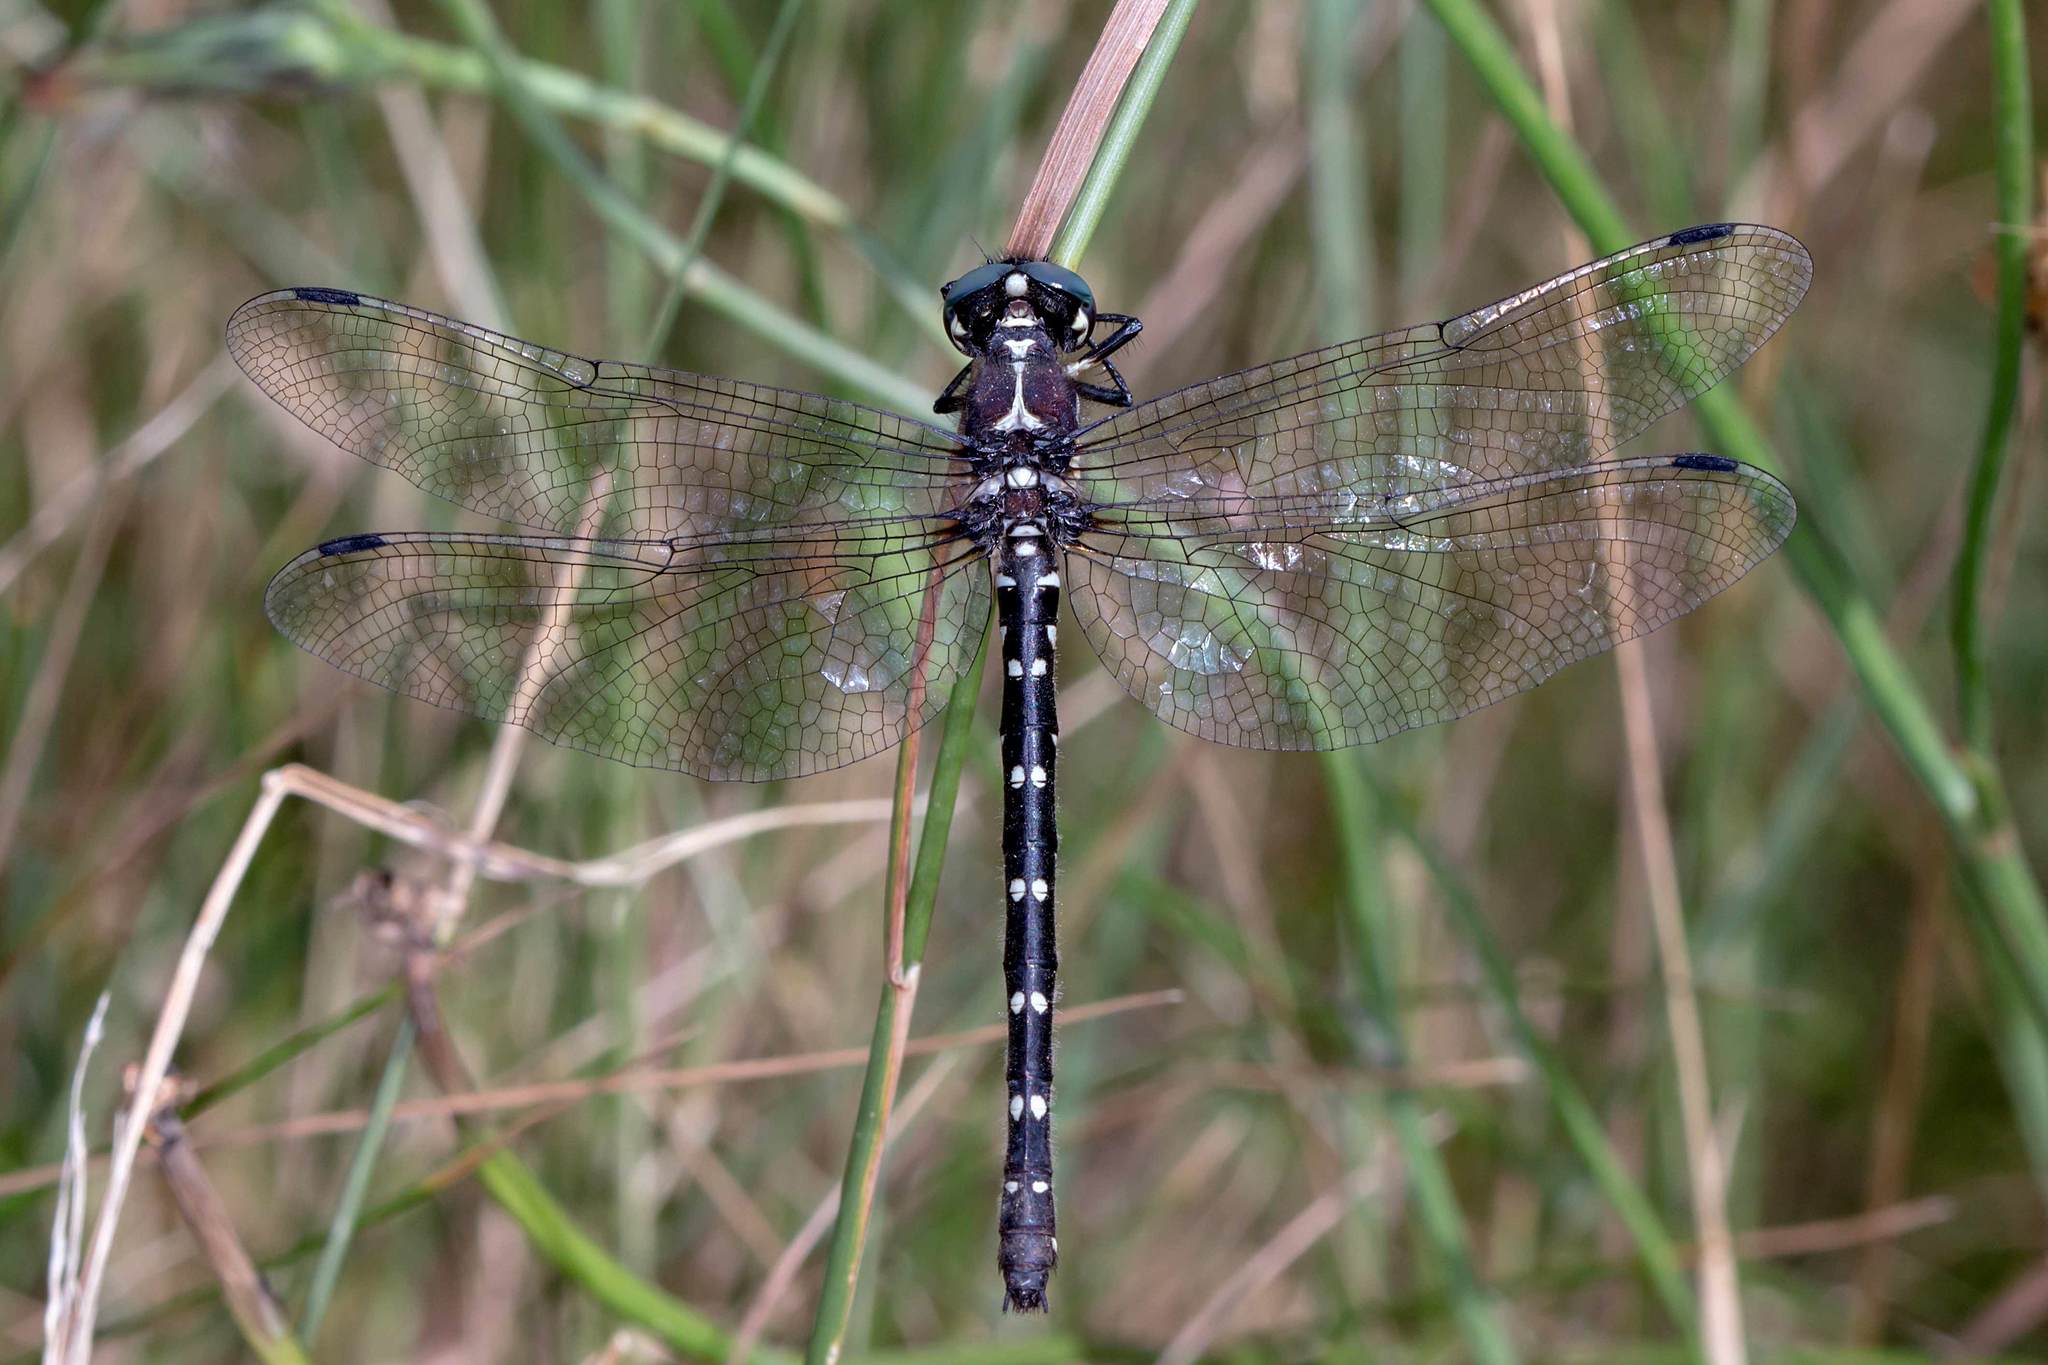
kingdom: Animalia
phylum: Arthropoda
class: Insecta
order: Odonata
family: Synthemistidae
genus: Eusynthemis
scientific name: Eusynthemis guttata
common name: Southern tigertail
